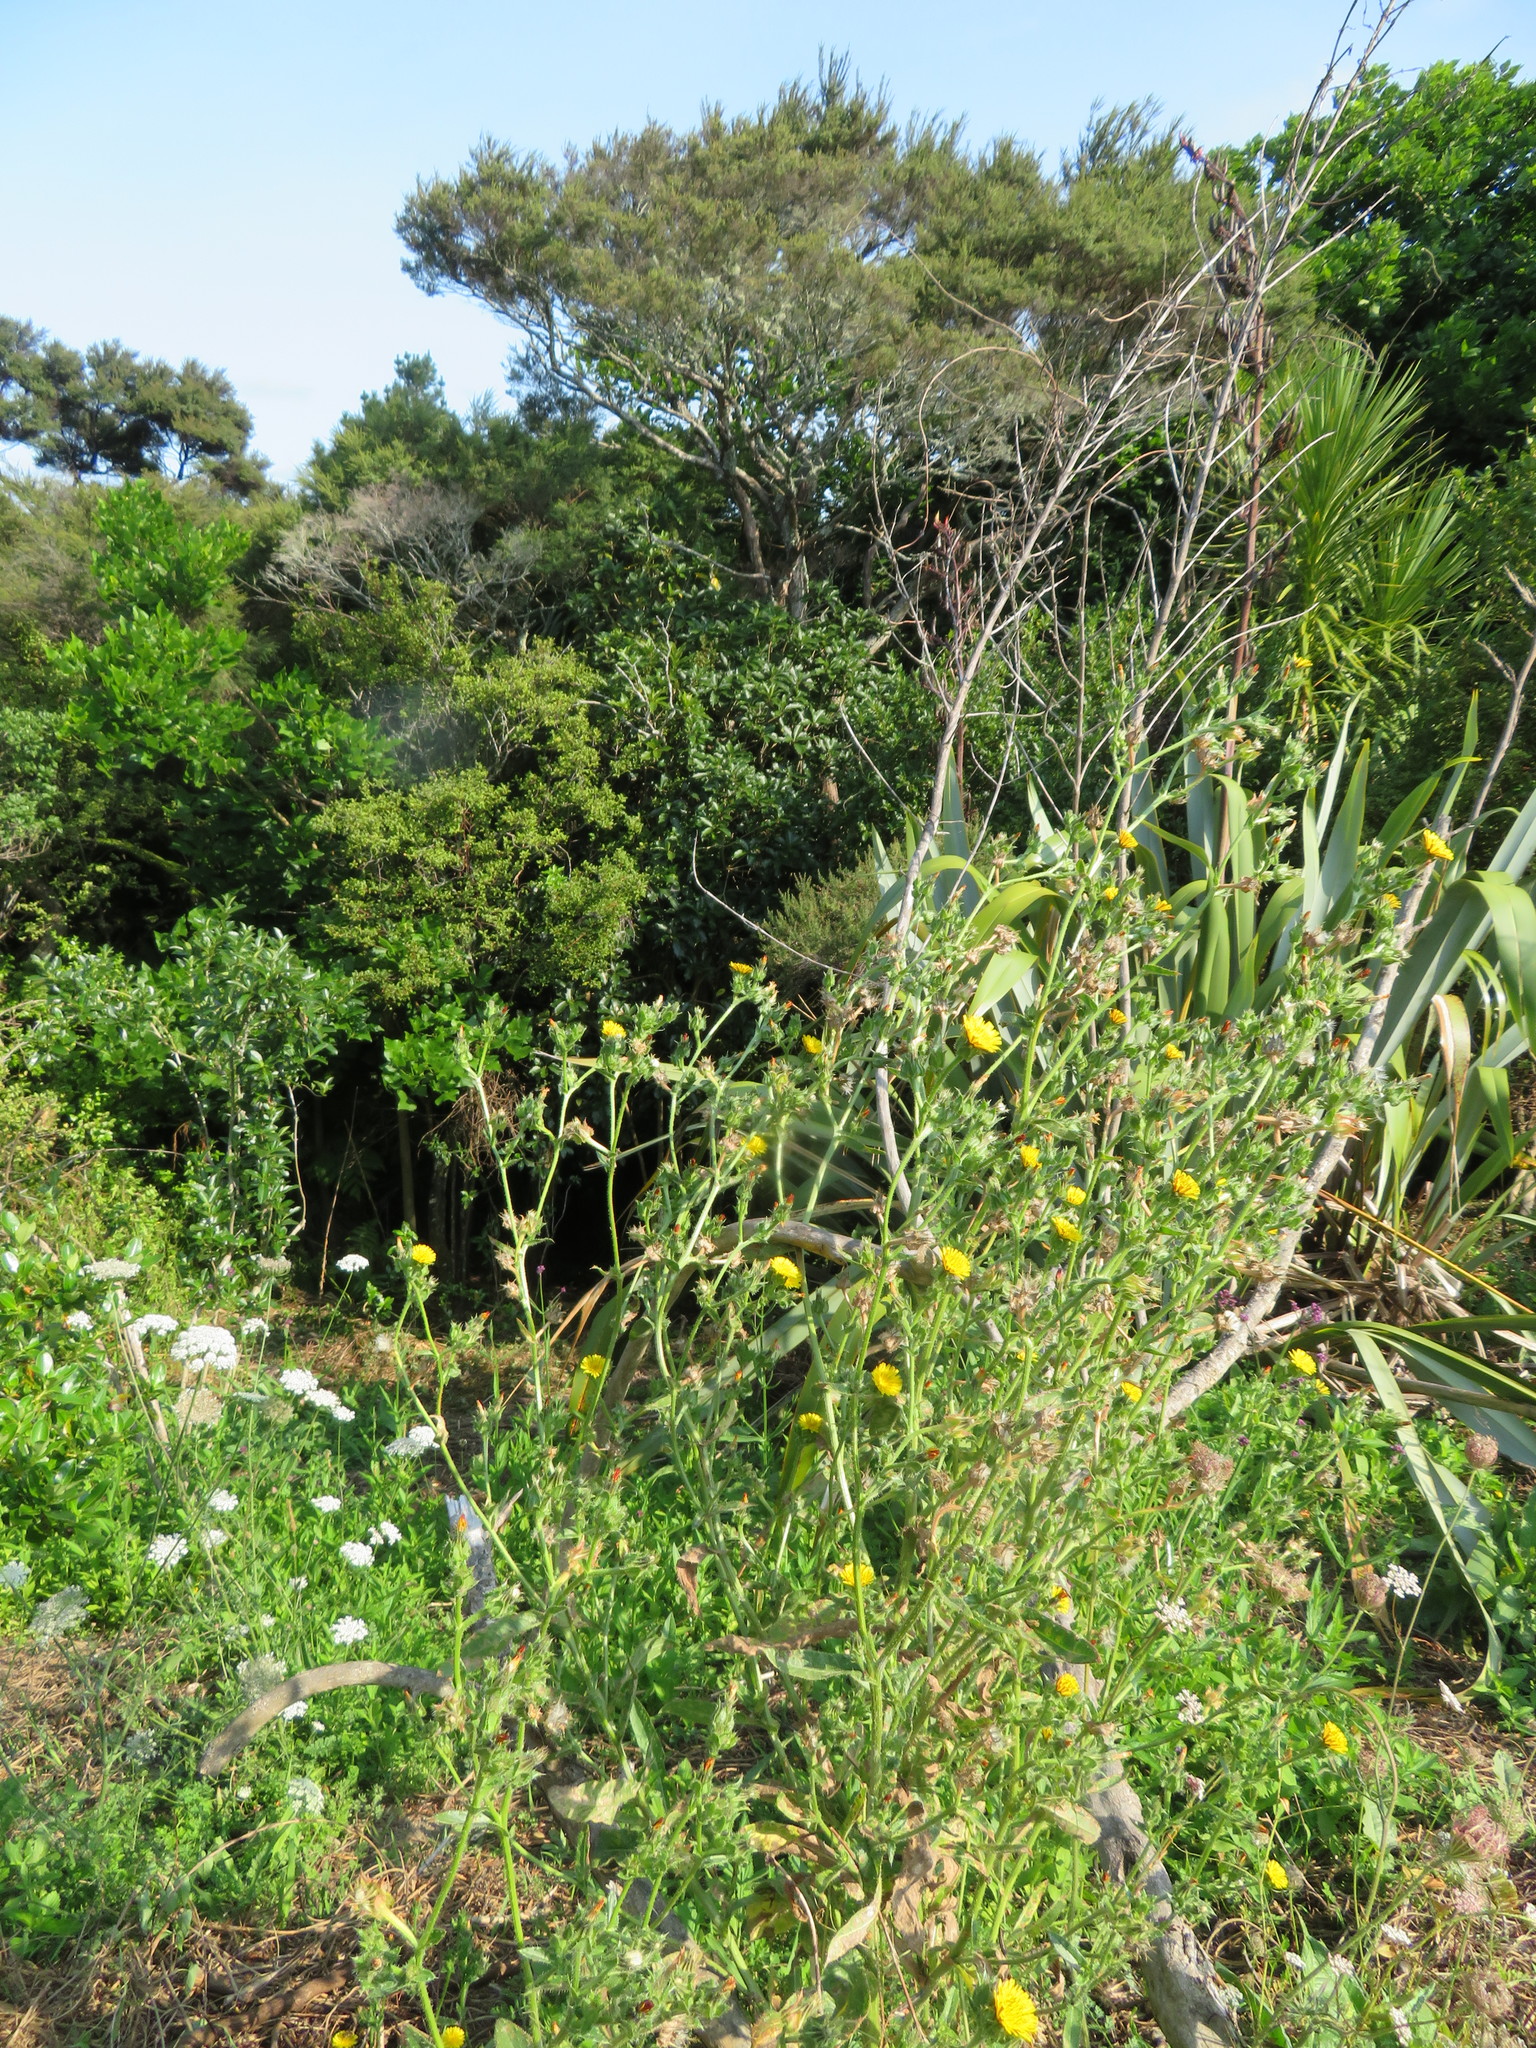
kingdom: Plantae
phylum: Tracheophyta
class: Magnoliopsida
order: Asterales
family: Asteraceae
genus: Helminthotheca
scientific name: Helminthotheca echioides
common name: Ox-tongue
